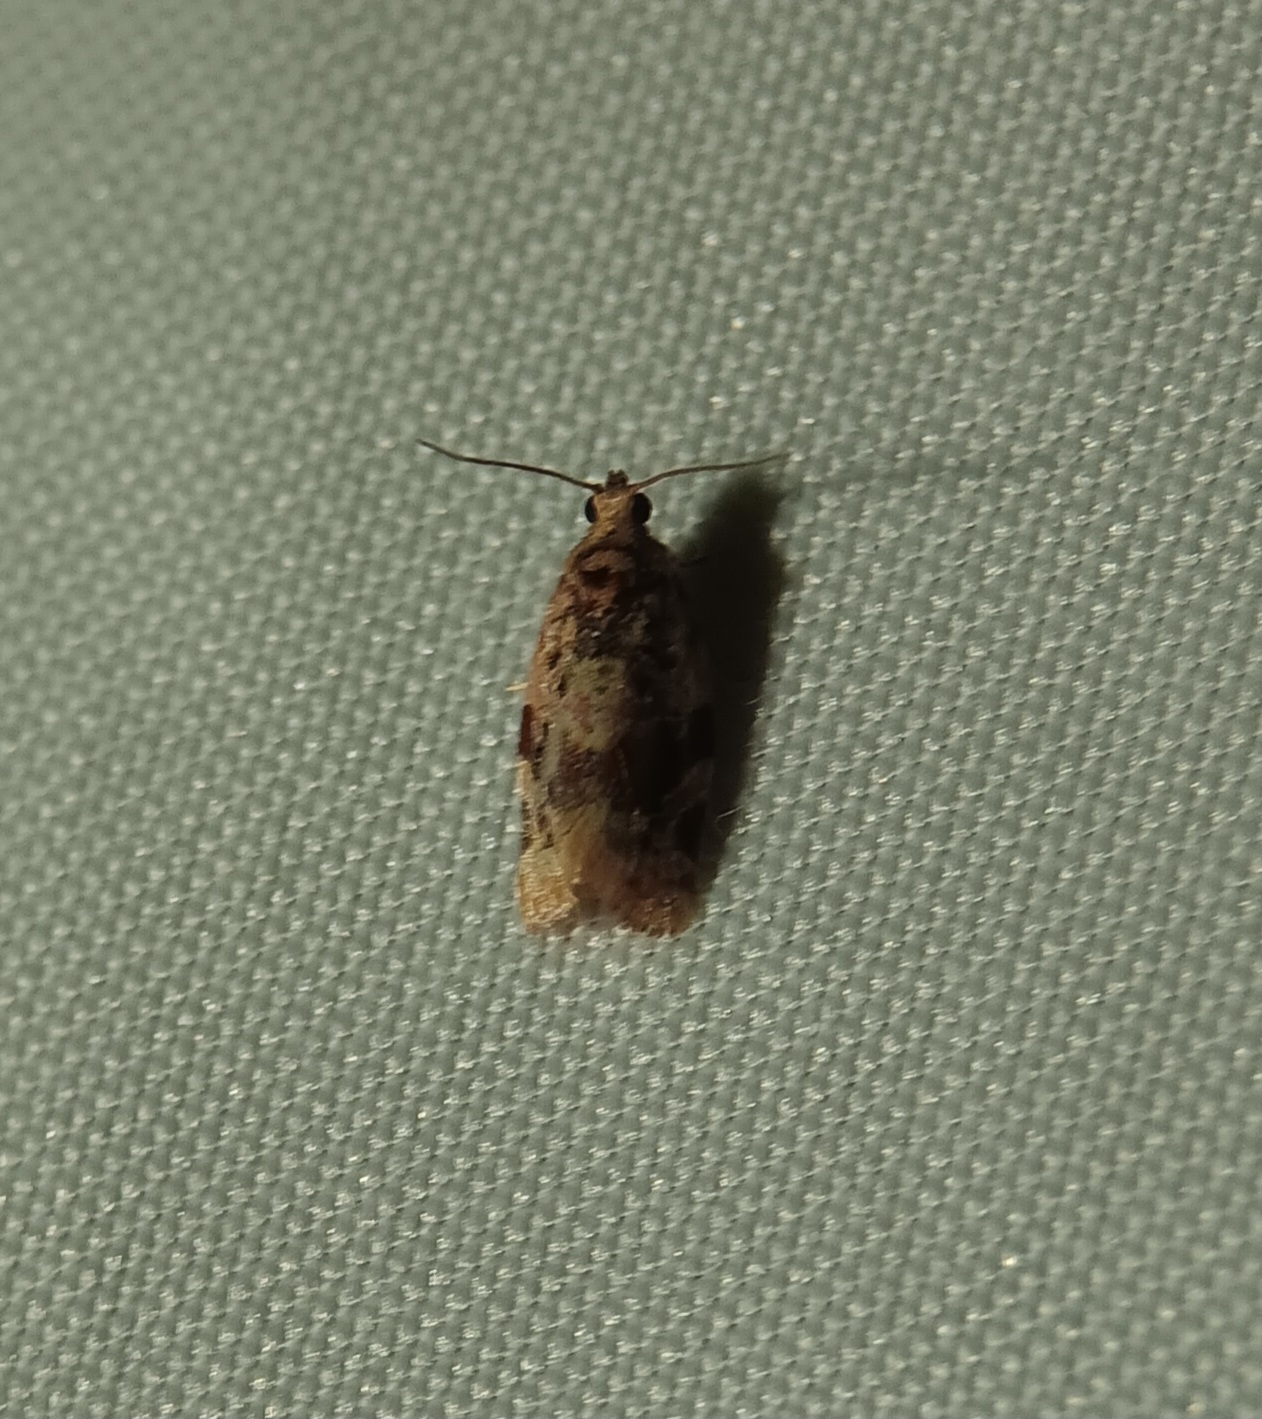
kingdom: Animalia
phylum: Arthropoda
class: Insecta
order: Lepidoptera
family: Tortricidae
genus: Argyrotaenia
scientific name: Argyrotaenia velutinana
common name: Red-banded leafroller moth
